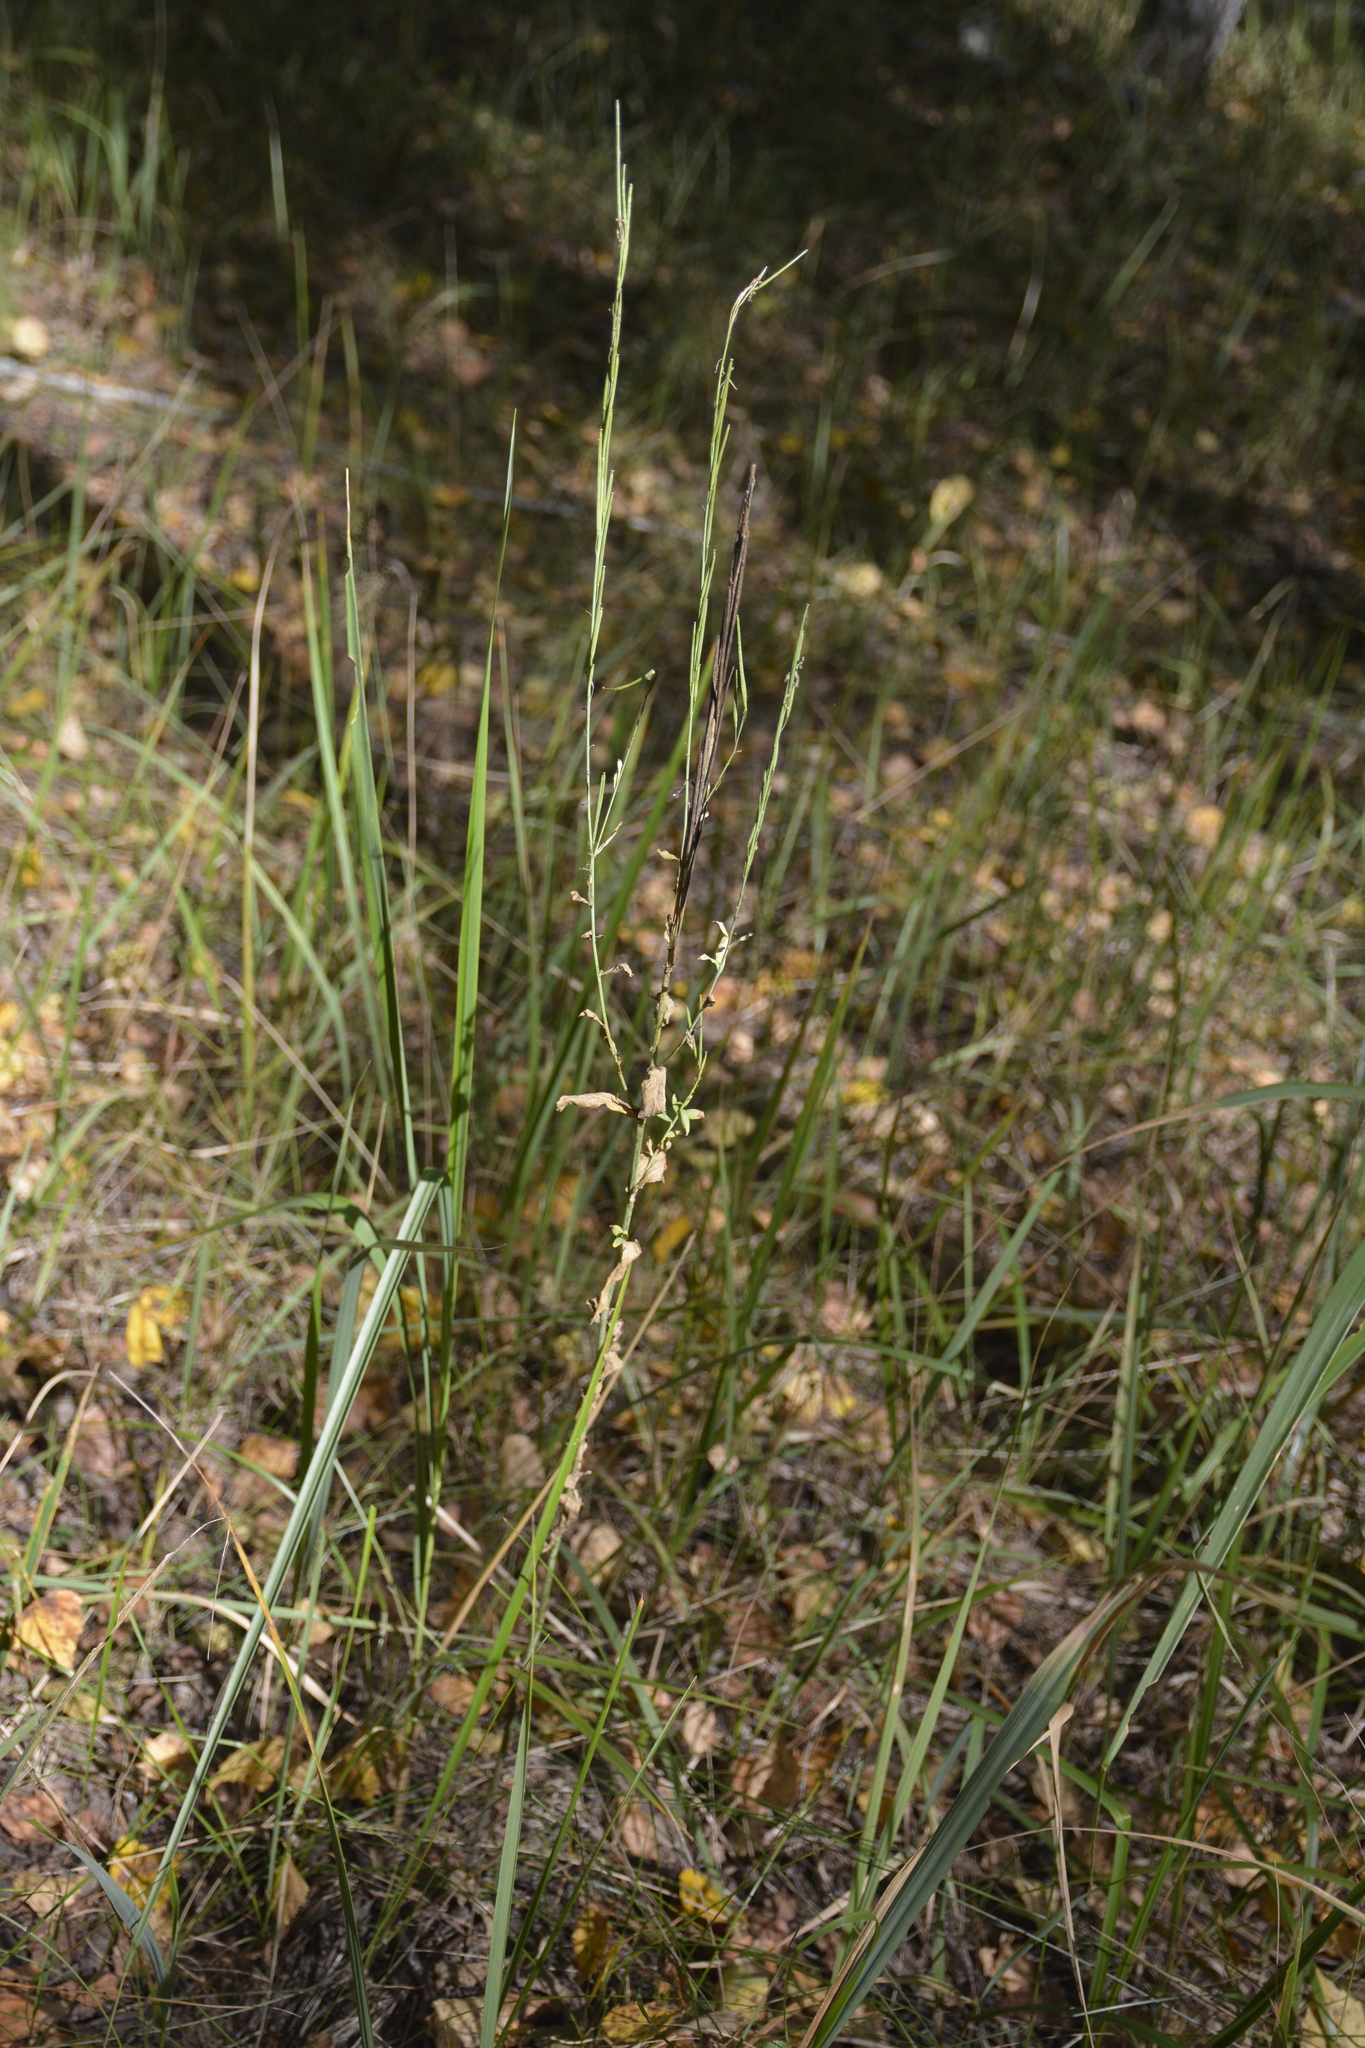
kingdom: Plantae
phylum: Tracheophyta
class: Magnoliopsida
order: Brassicales
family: Brassicaceae
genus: Turritis
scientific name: Turritis glabra
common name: Tower rockcress
